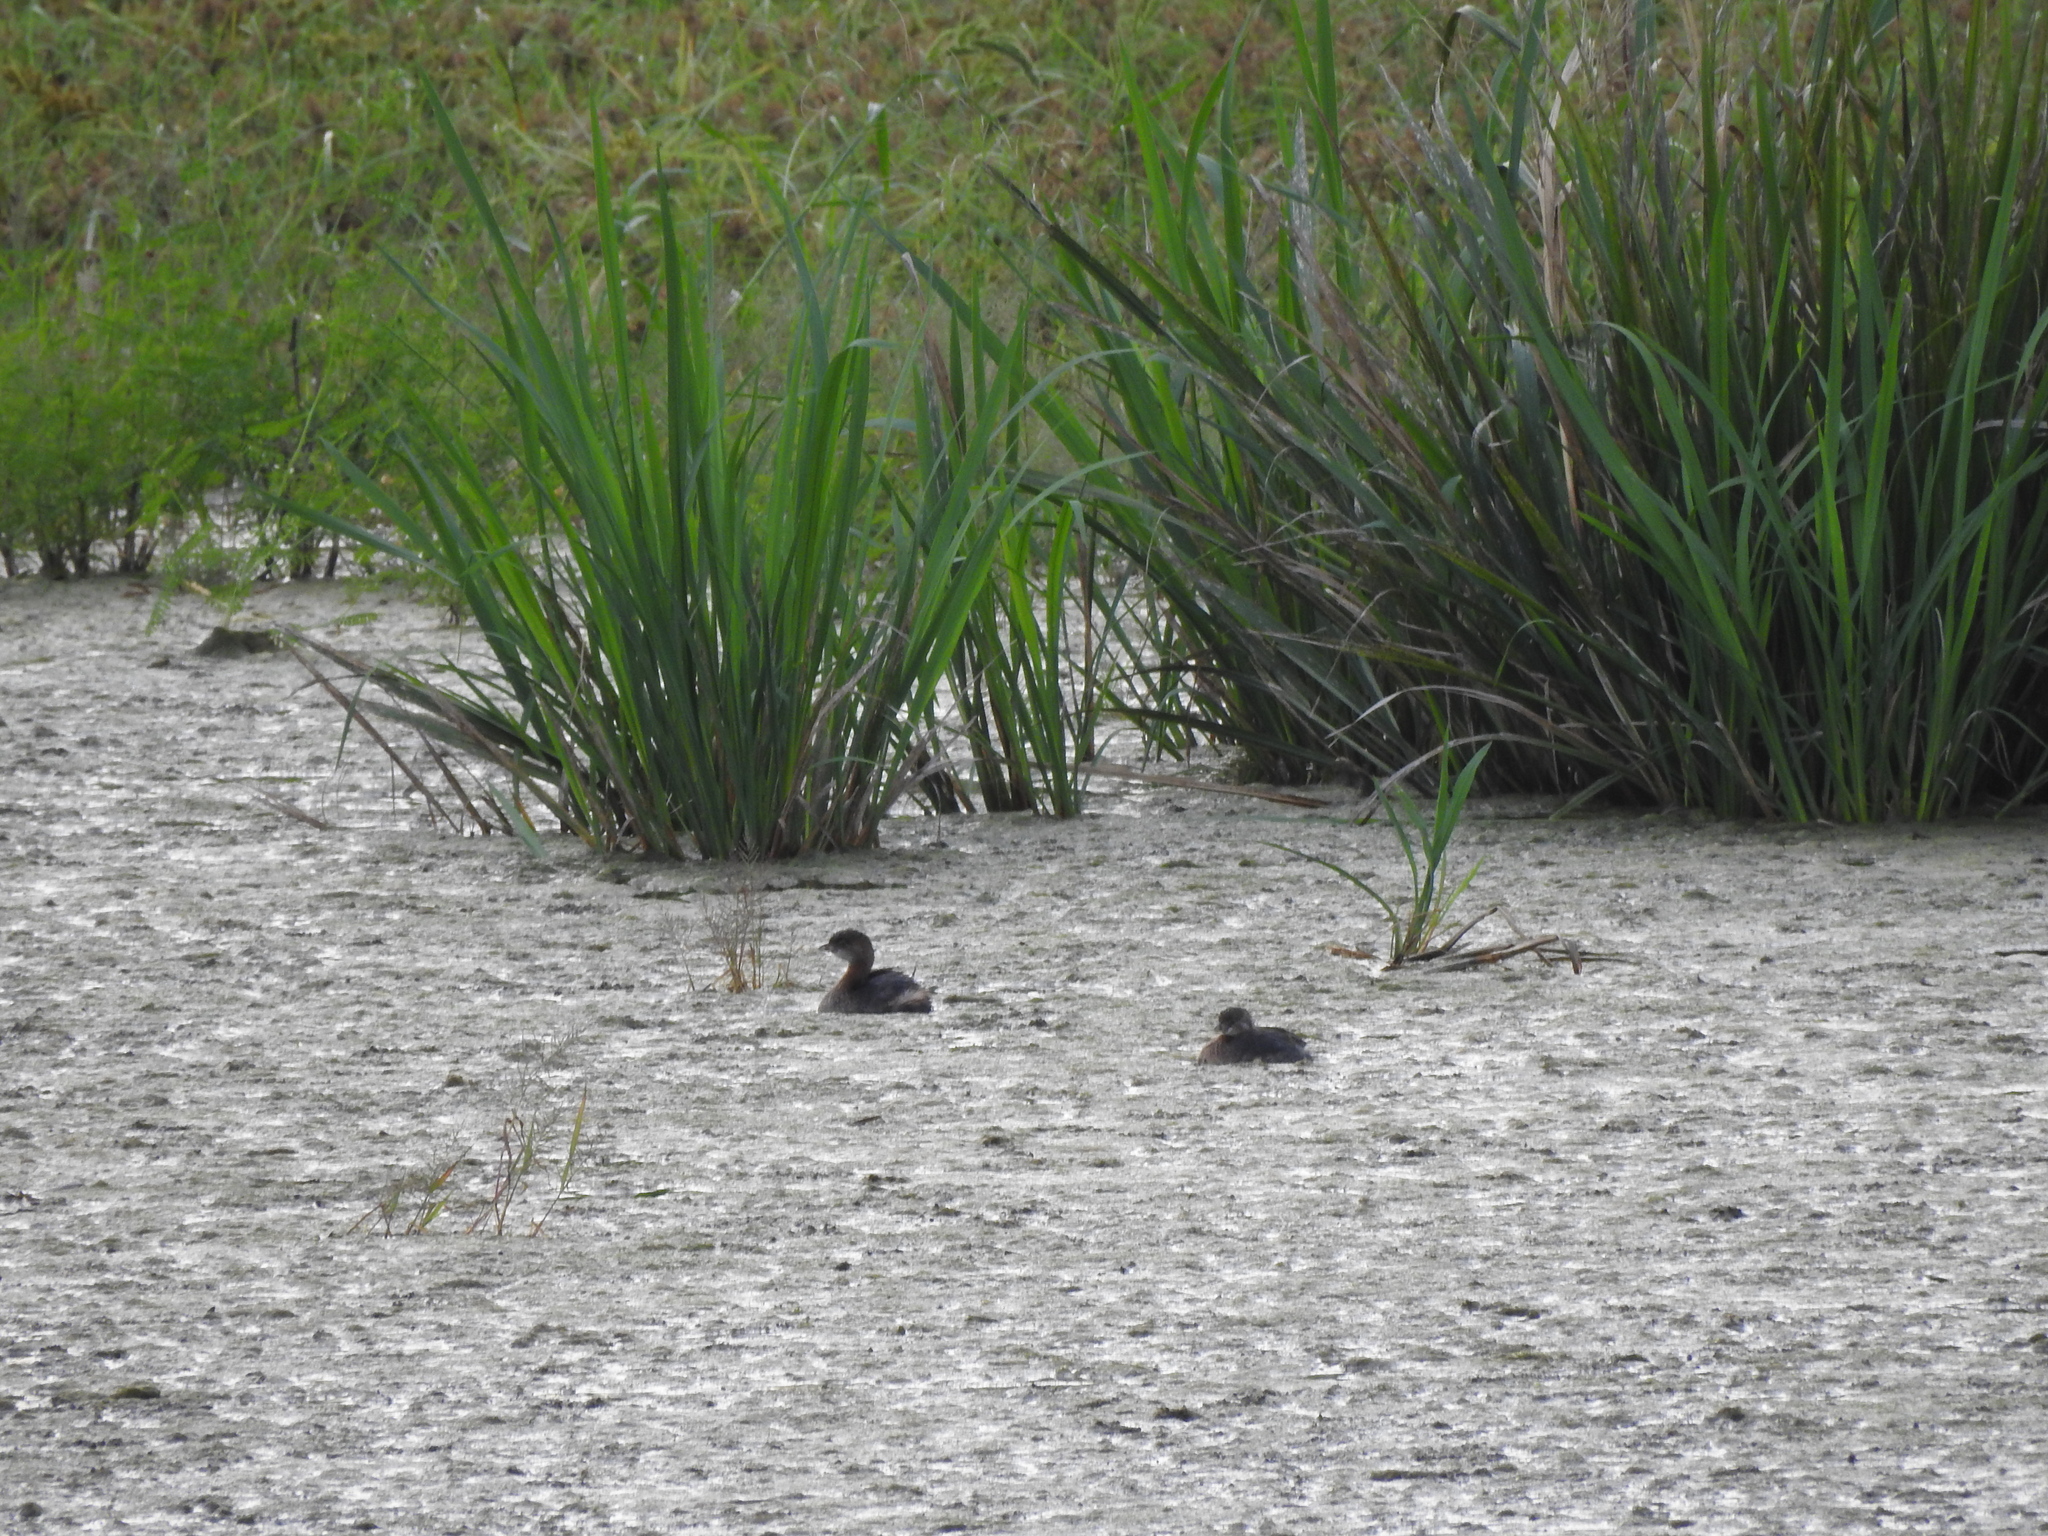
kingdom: Animalia
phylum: Chordata
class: Aves
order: Podicipediformes
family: Podicipedidae
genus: Podilymbus
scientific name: Podilymbus podiceps
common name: Pied-billed grebe
